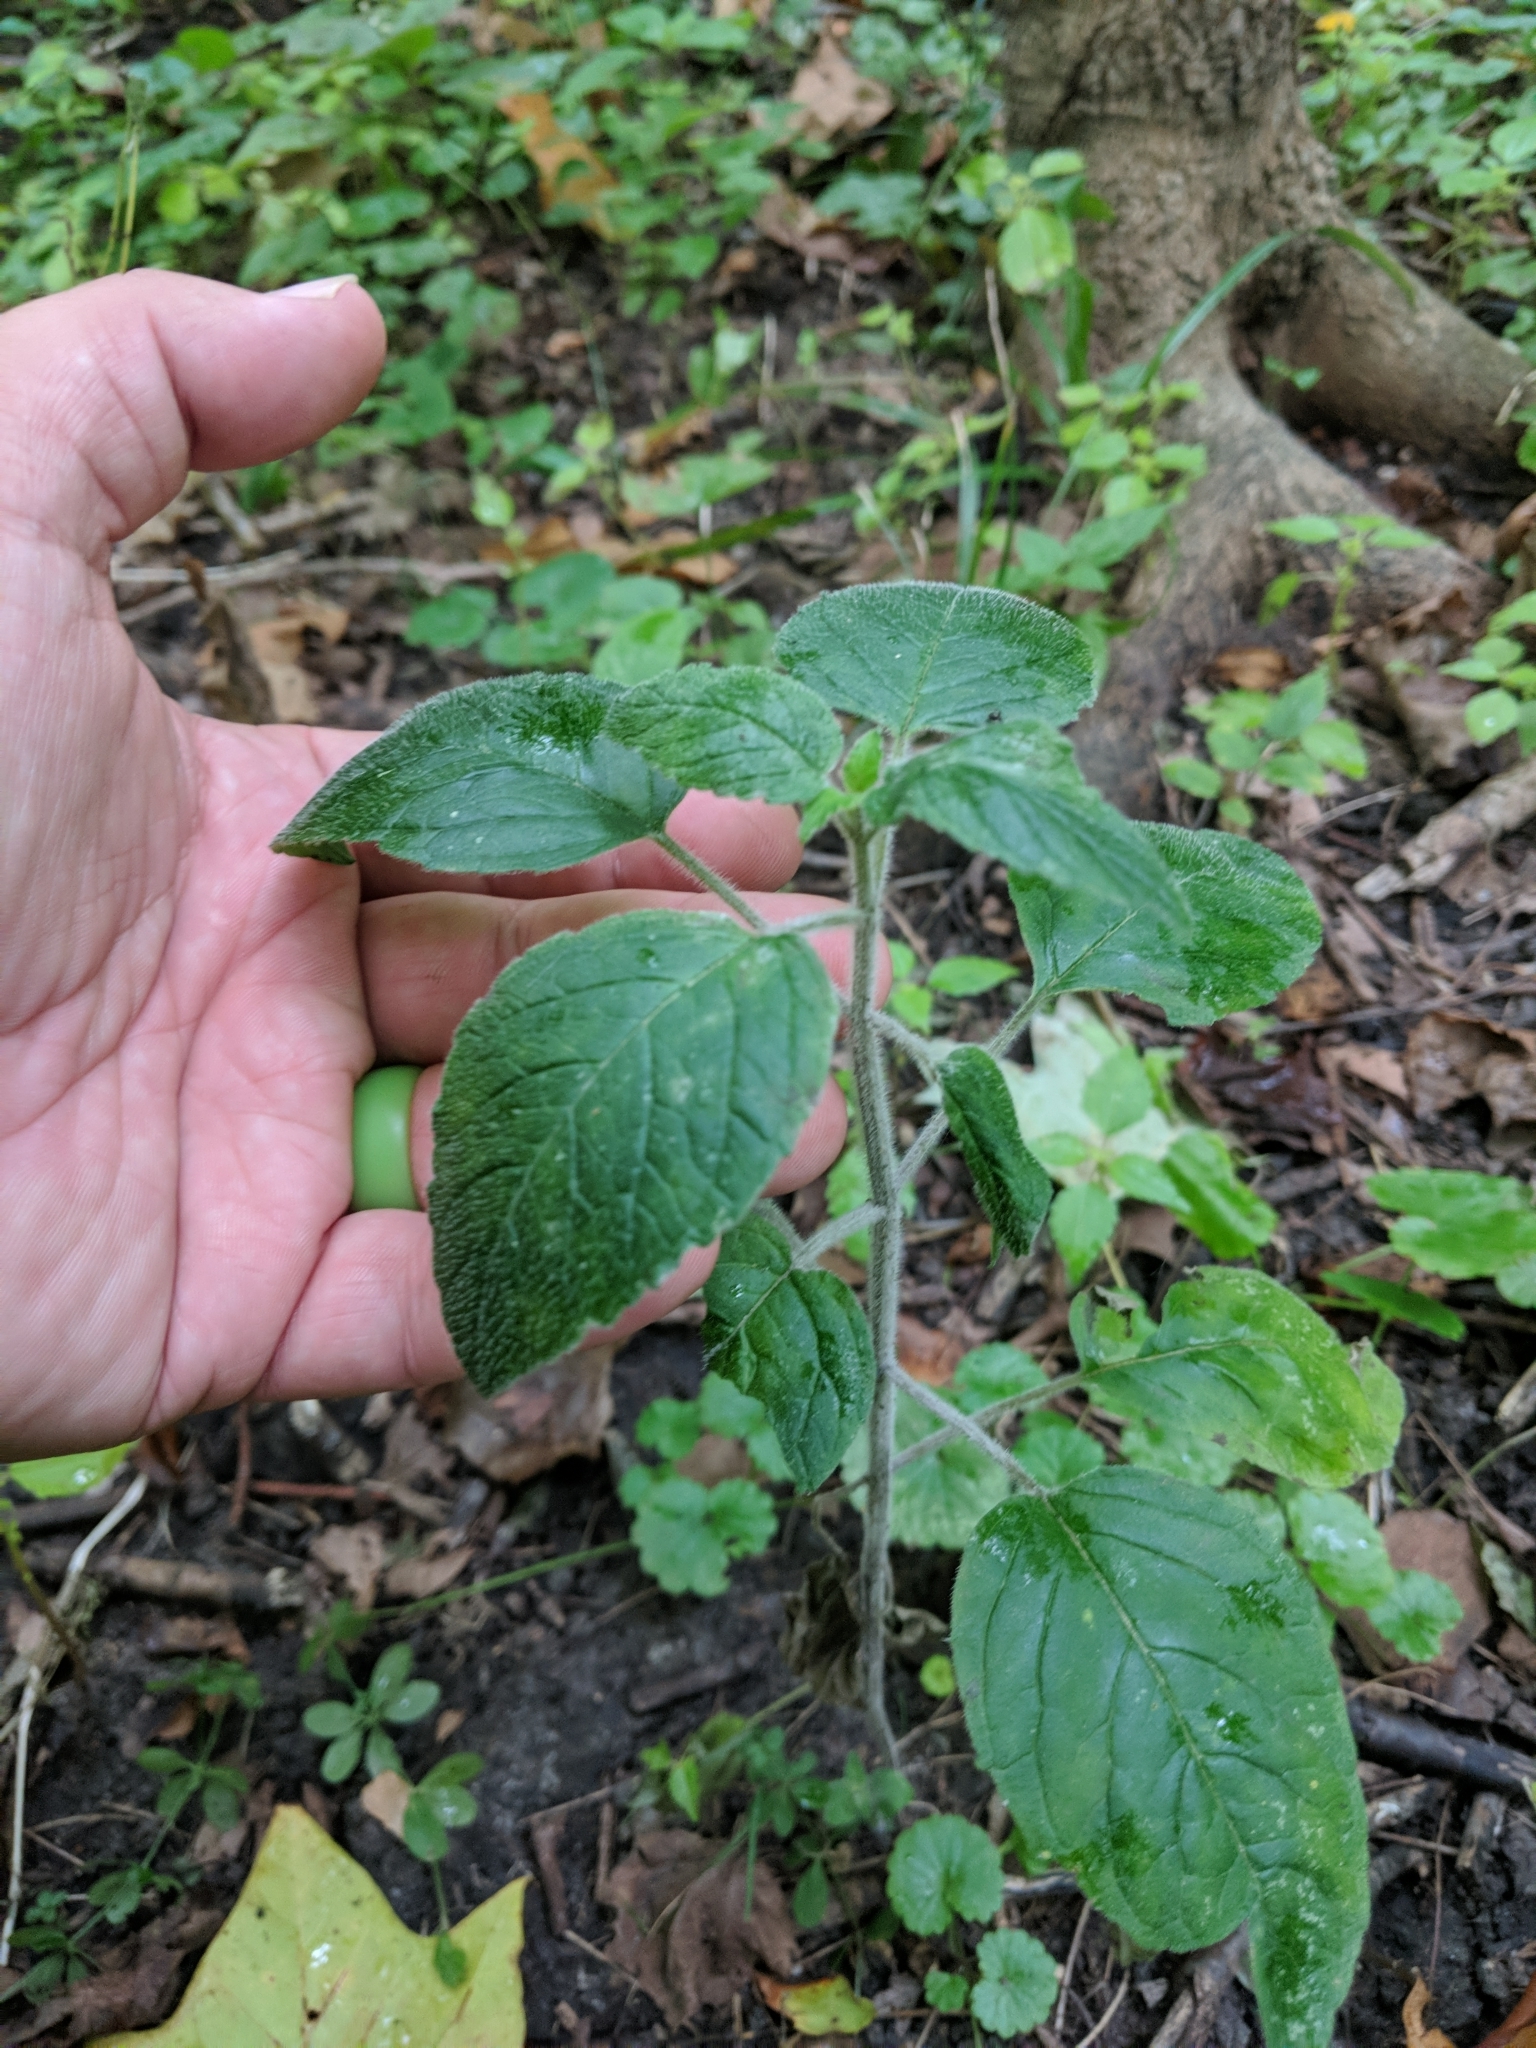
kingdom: Plantae
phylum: Tracheophyta
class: Magnoliopsida
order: Lamiales
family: Lamiaceae
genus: Blephilia
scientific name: Blephilia hirsuta
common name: Hairy blephilia
